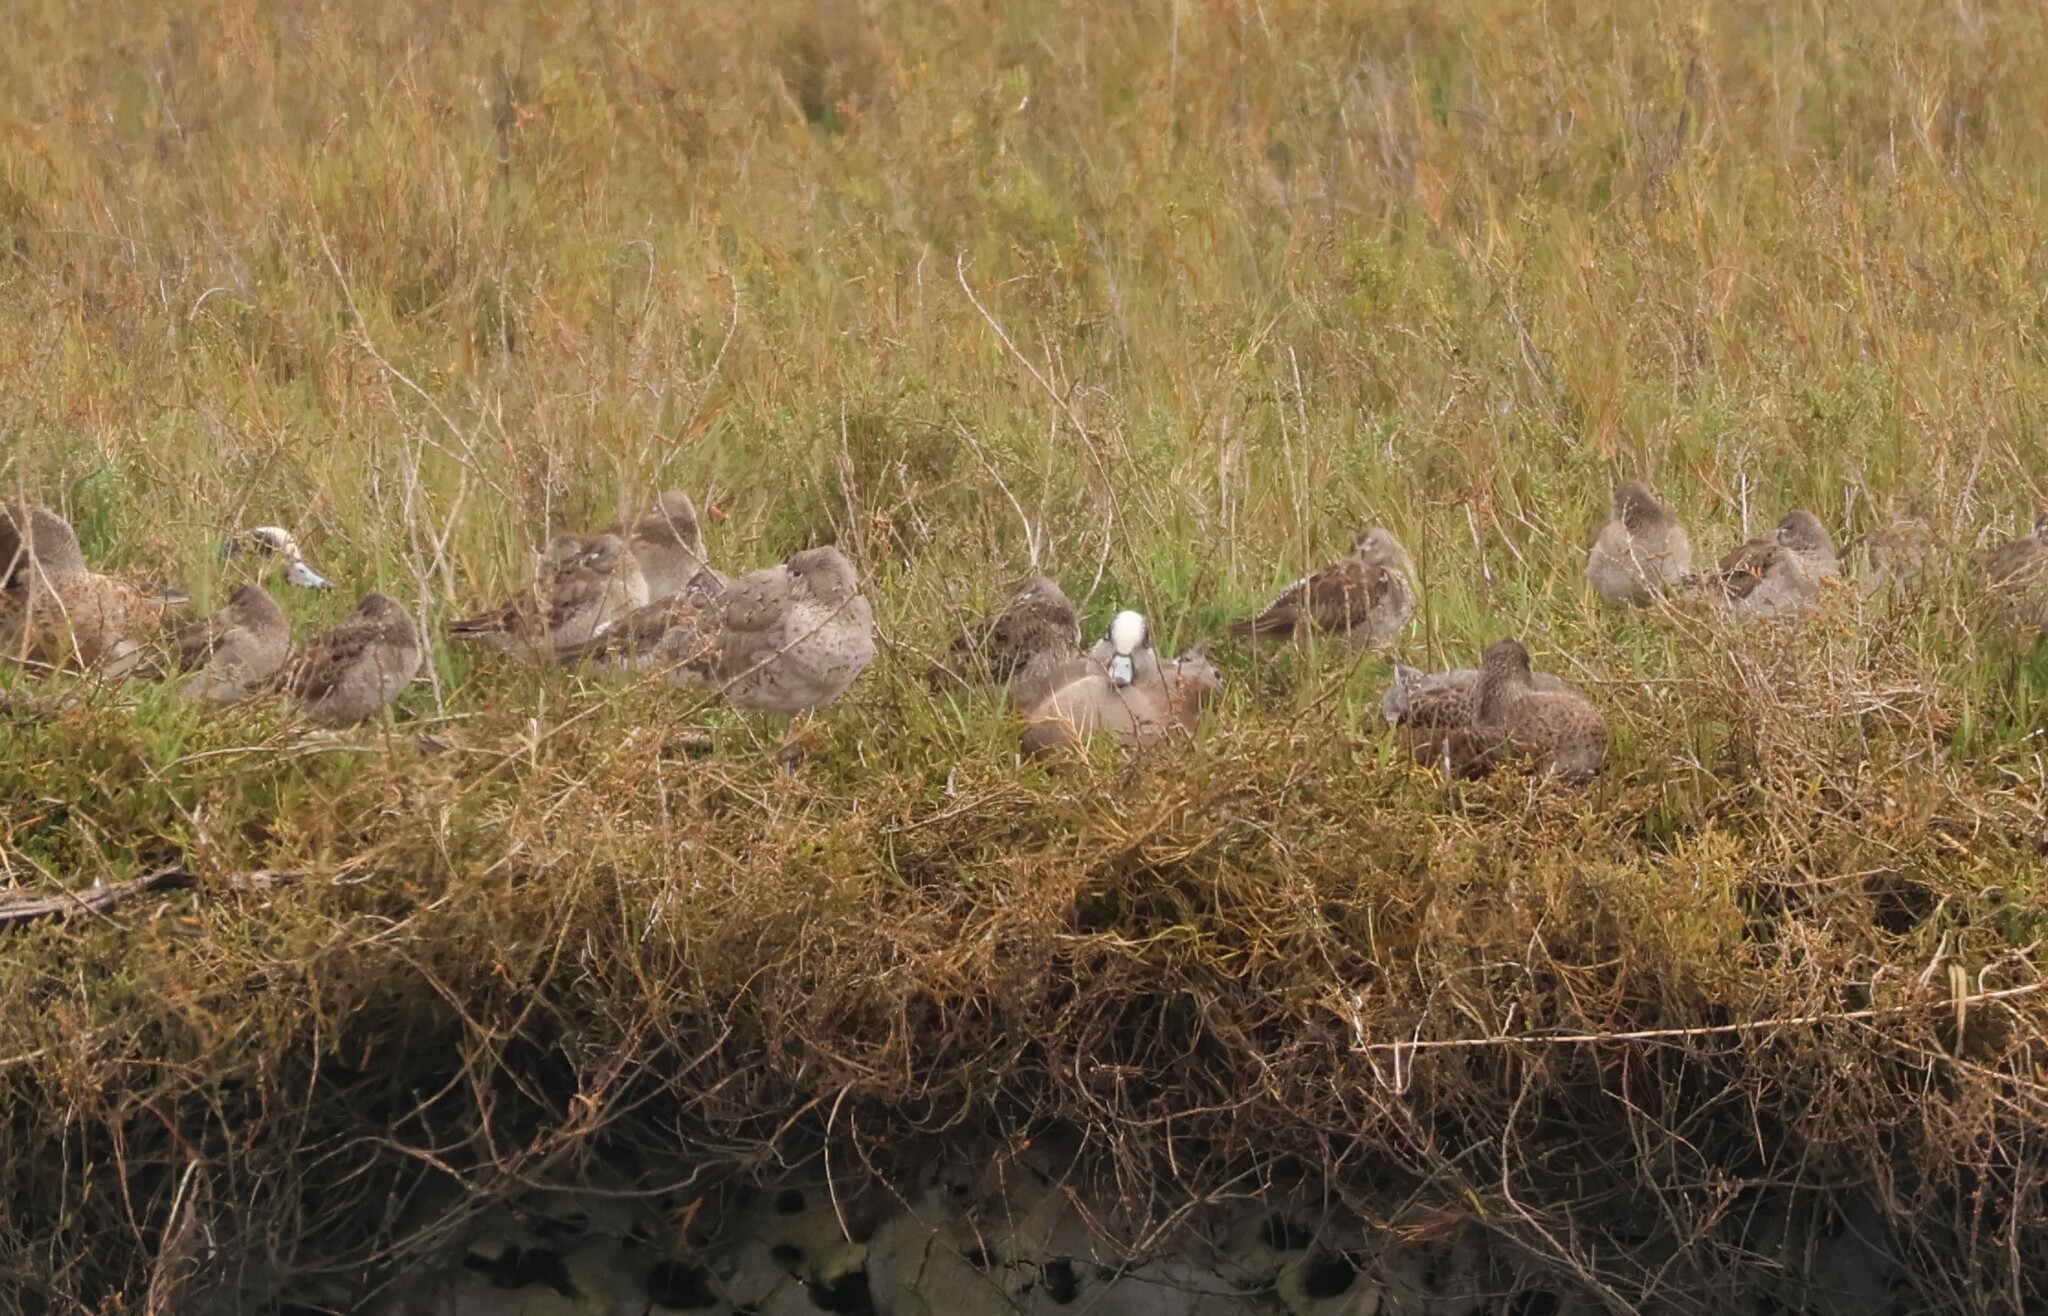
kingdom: Animalia
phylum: Chordata
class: Aves
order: Anseriformes
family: Anatidae
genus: Mareca
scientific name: Mareca americana
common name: American wigeon
